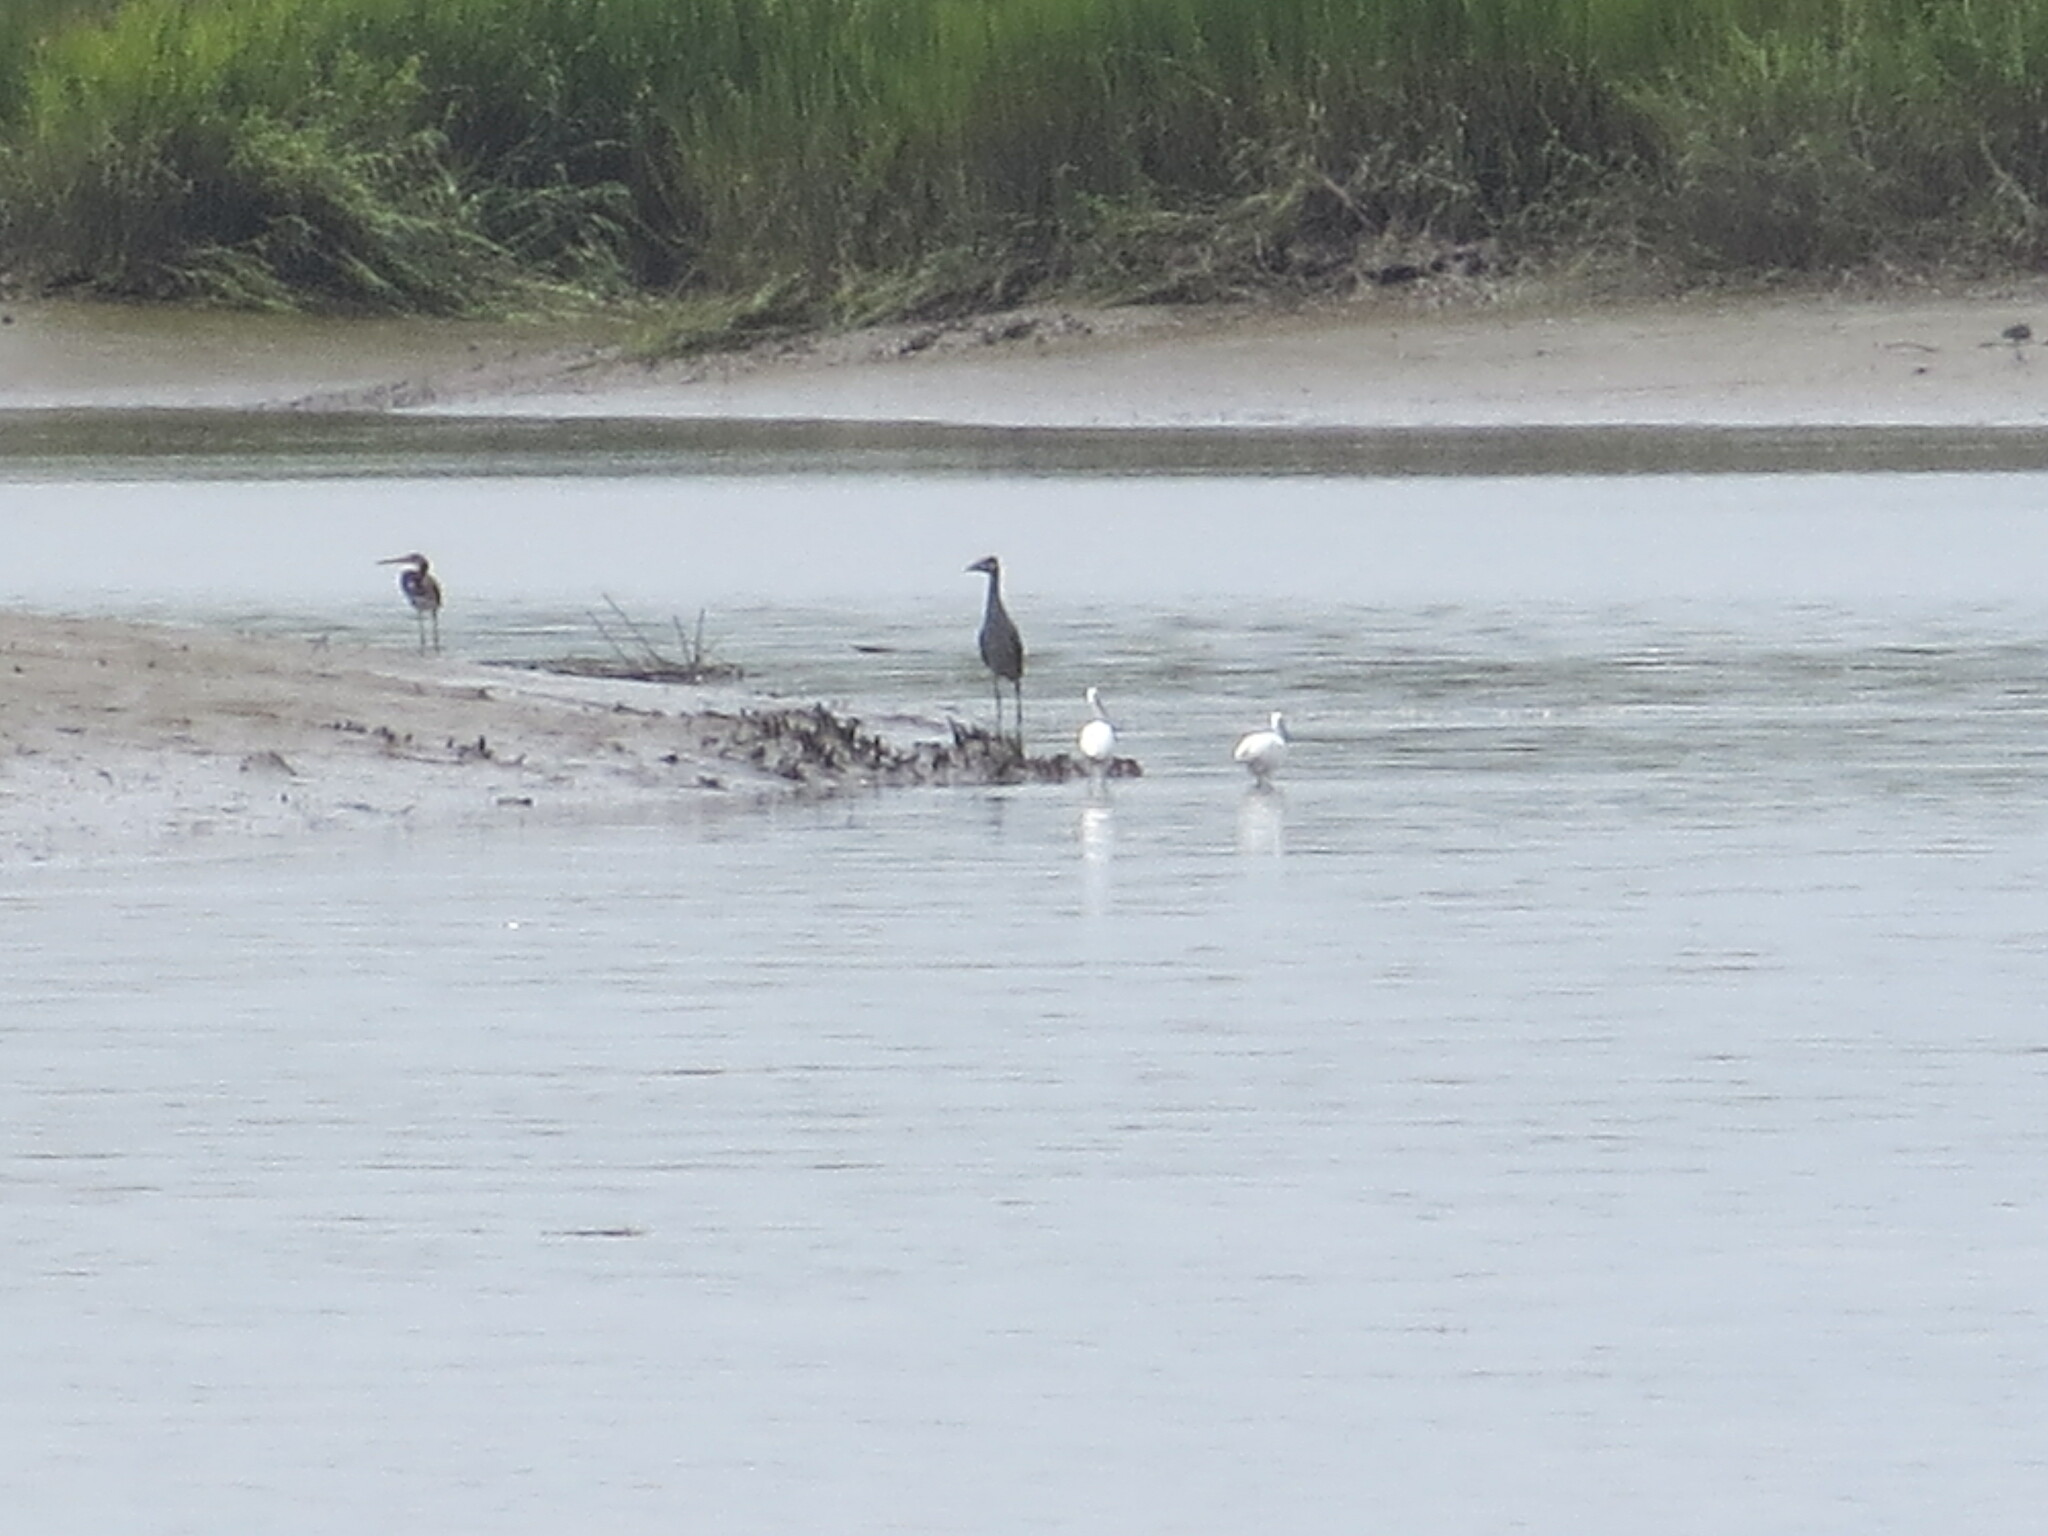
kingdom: Animalia
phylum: Chordata
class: Aves
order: Pelecaniformes
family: Ardeidae
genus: Egretta
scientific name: Egretta tricolor
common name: Tricolored heron
